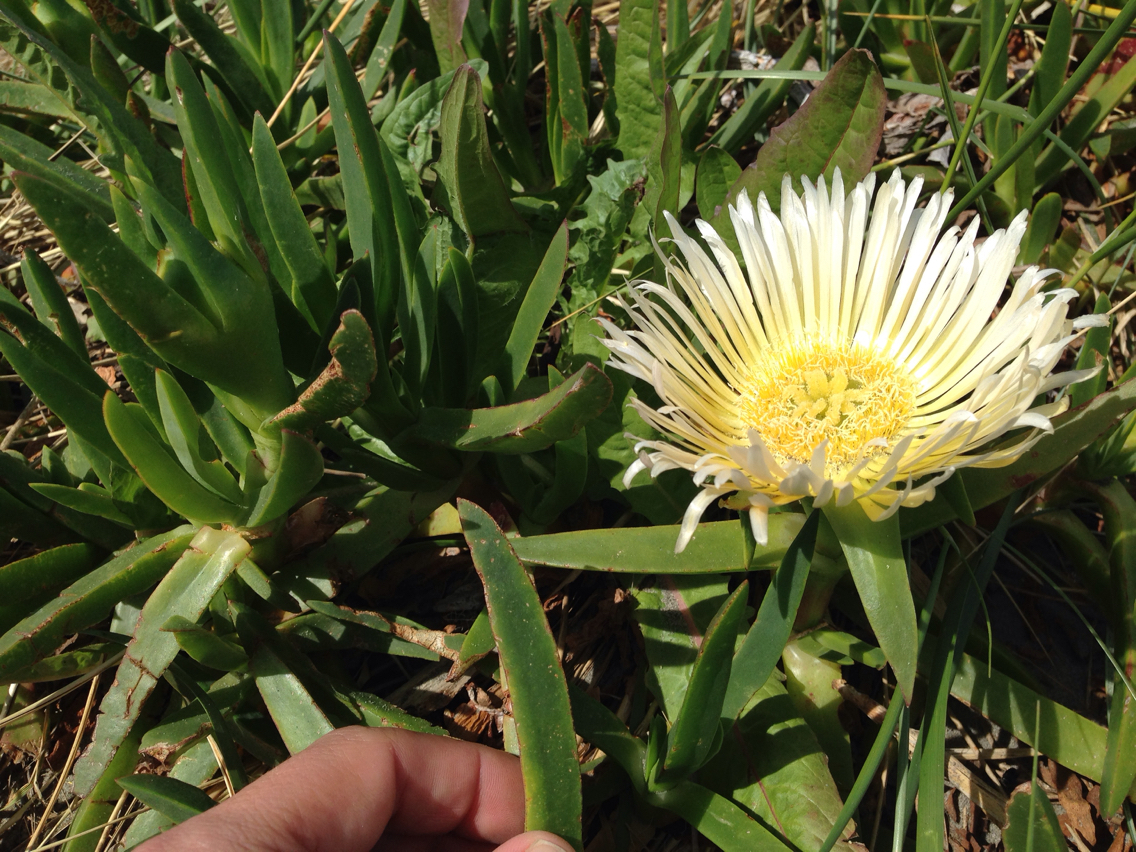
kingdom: Plantae
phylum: Tracheophyta
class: Magnoliopsida
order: Caryophyllales
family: Aizoaceae
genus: Carpobrotus
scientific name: Carpobrotus edulis
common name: Hottentot-fig
